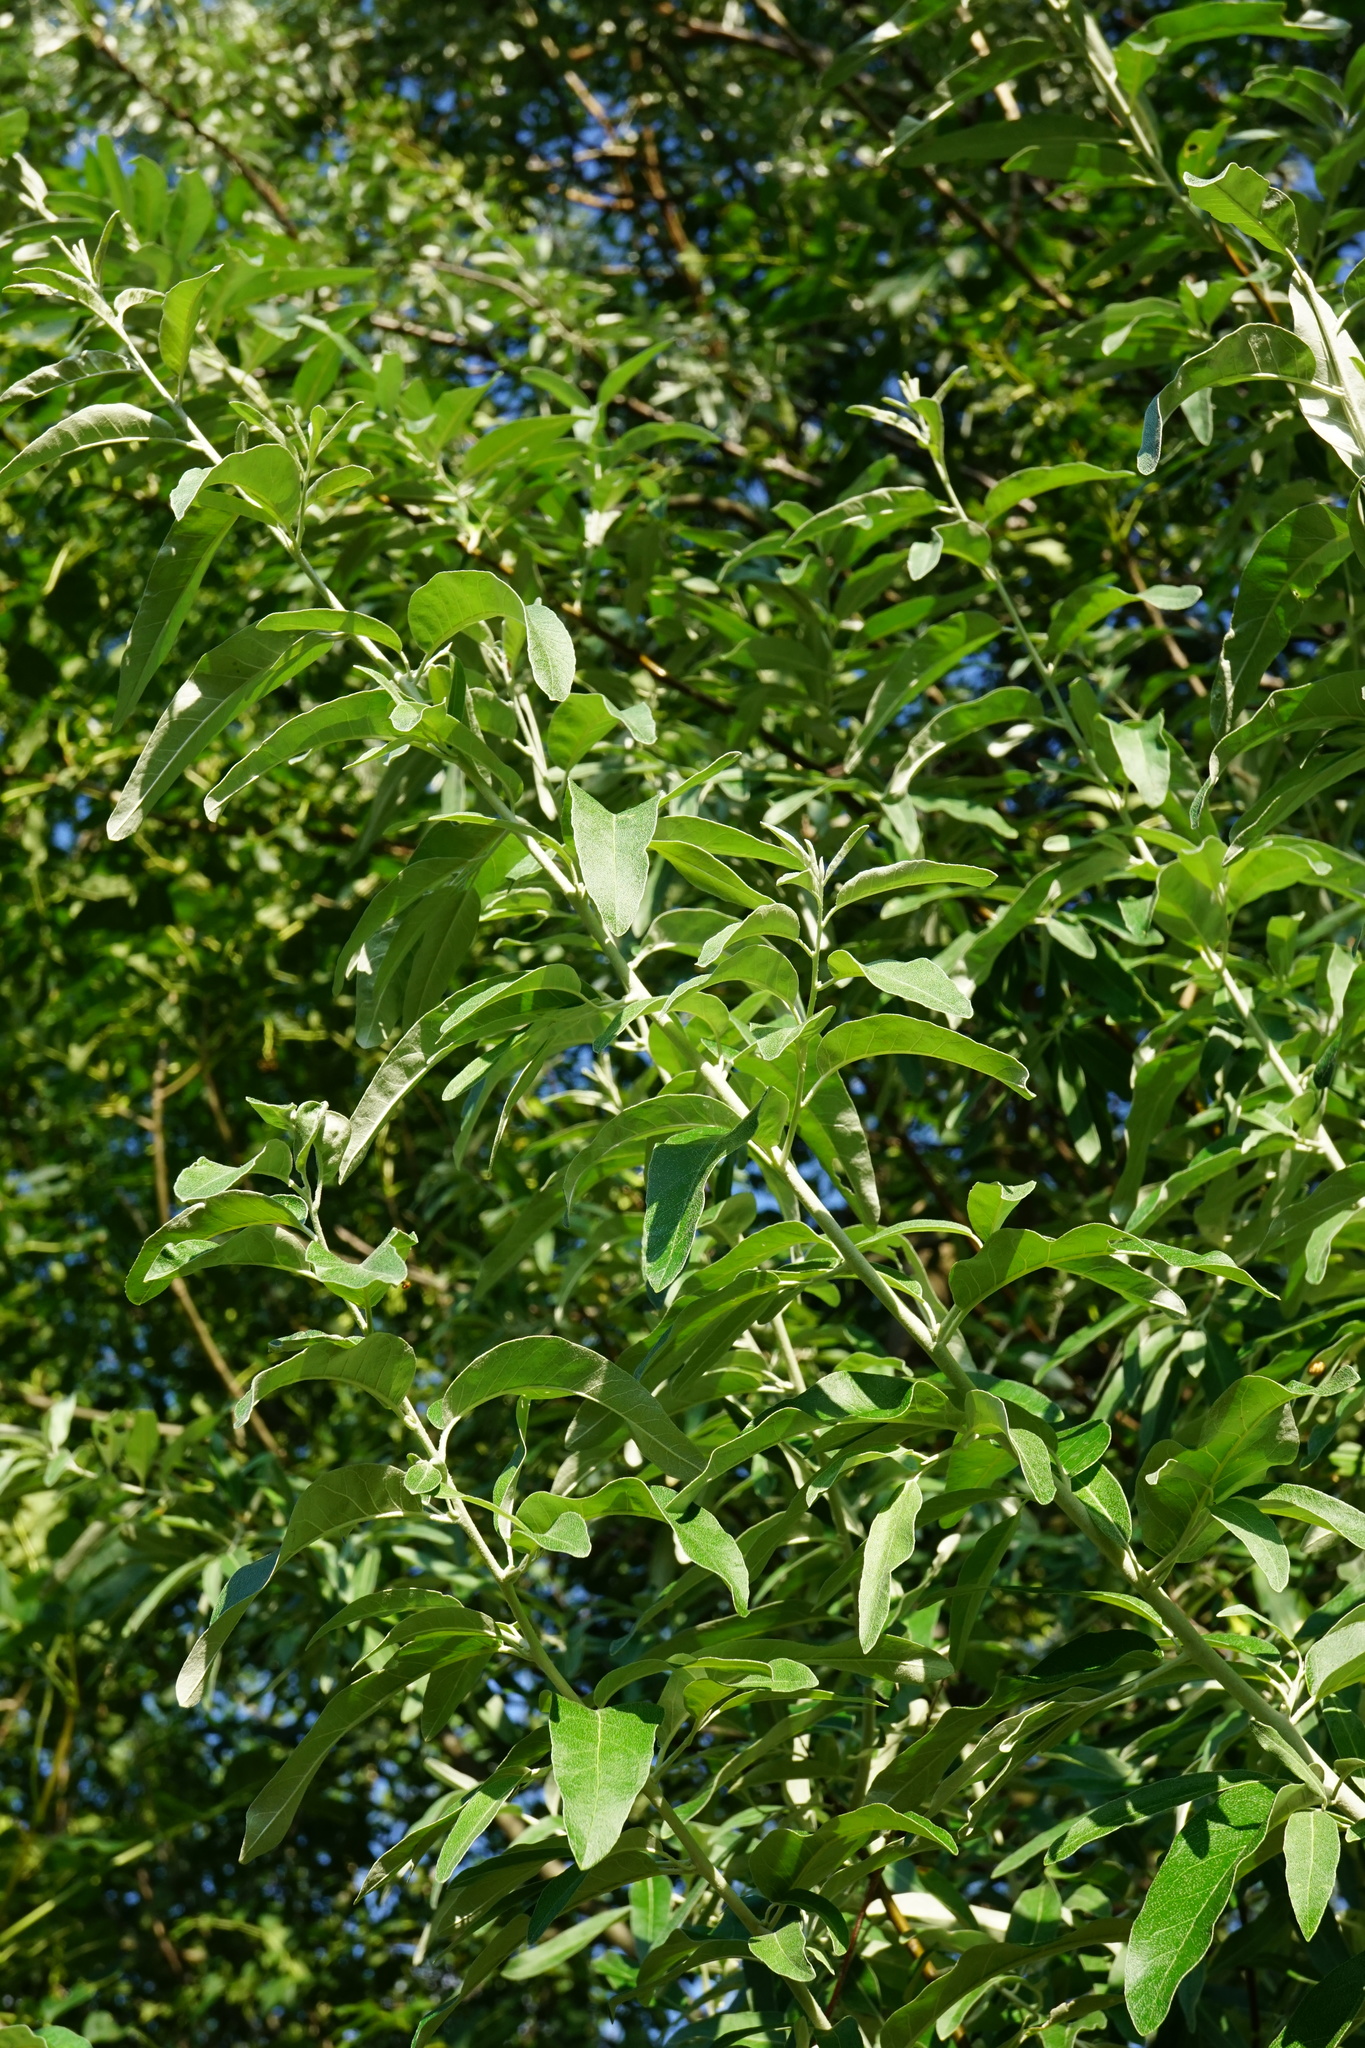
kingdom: Plantae
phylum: Tracheophyta
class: Magnoliopsida
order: Rosales
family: Elaeagnaceae
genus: Elaeagnus
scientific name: Elaeagnus angustifolia
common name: Russian olive
